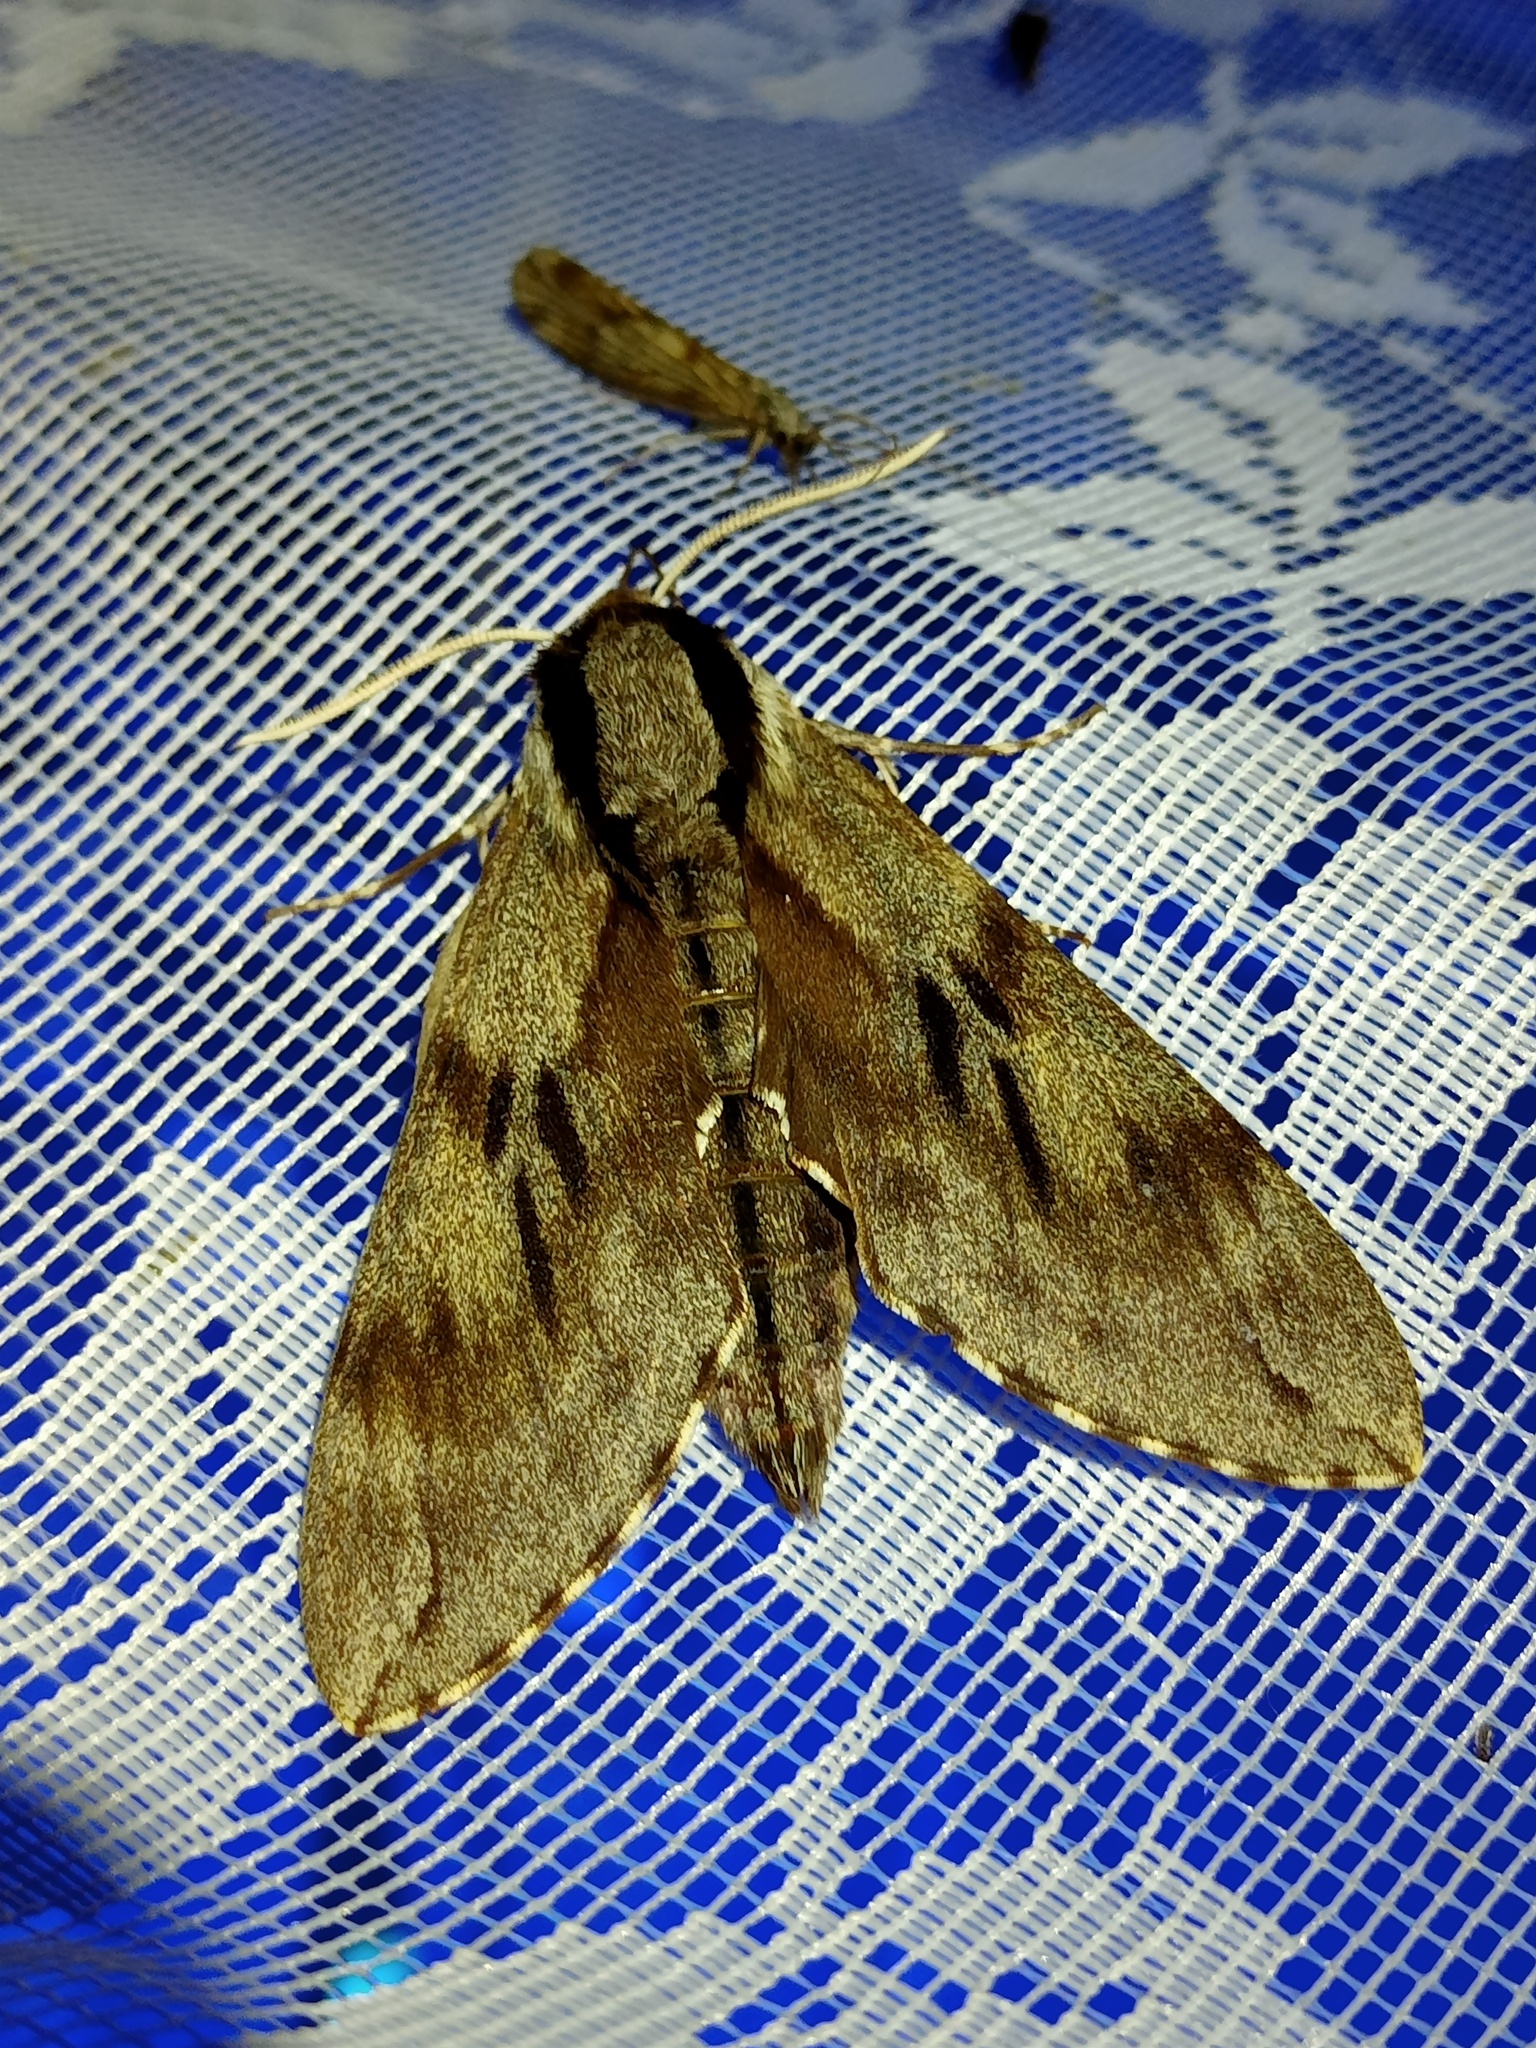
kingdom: Animalia
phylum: Arthropoda
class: Insecta
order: Lepidoptera
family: Sphingidae
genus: Sphinx
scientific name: Sphinx pinastri
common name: Pine hawk-moth
